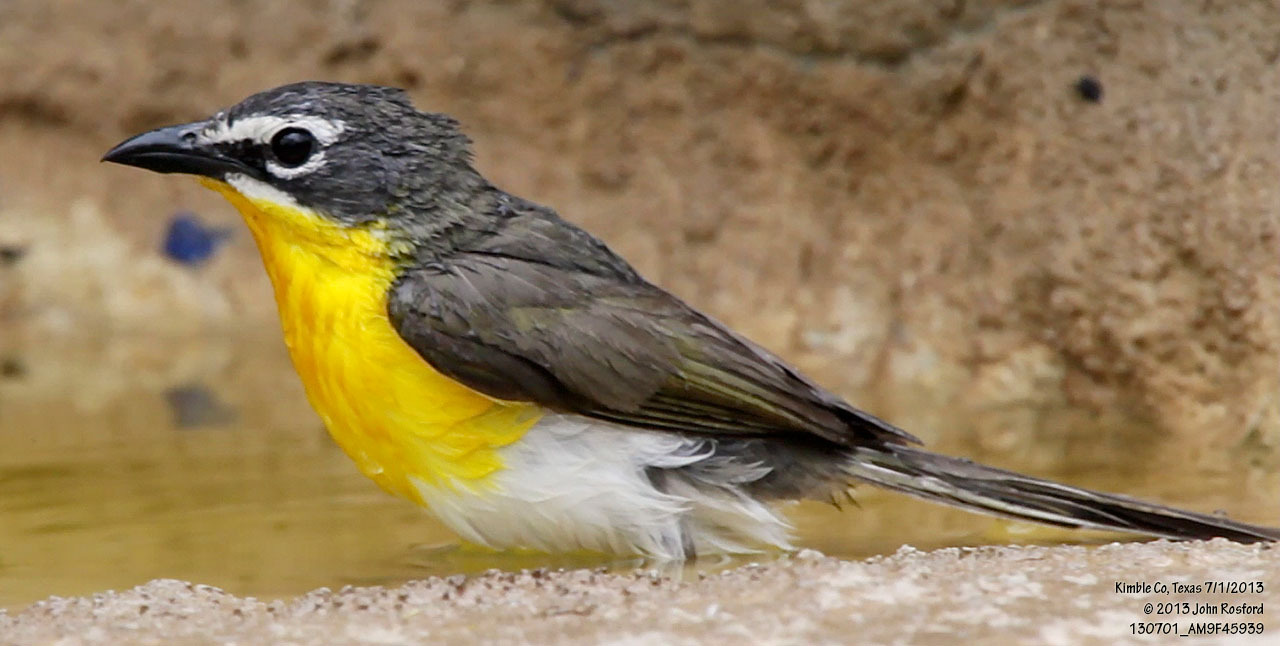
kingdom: Animalia
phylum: Chordata
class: Aves
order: Passeriformes
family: Parulidae
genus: Icteria
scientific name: Icteria virens
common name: Yellow-breasted chat
